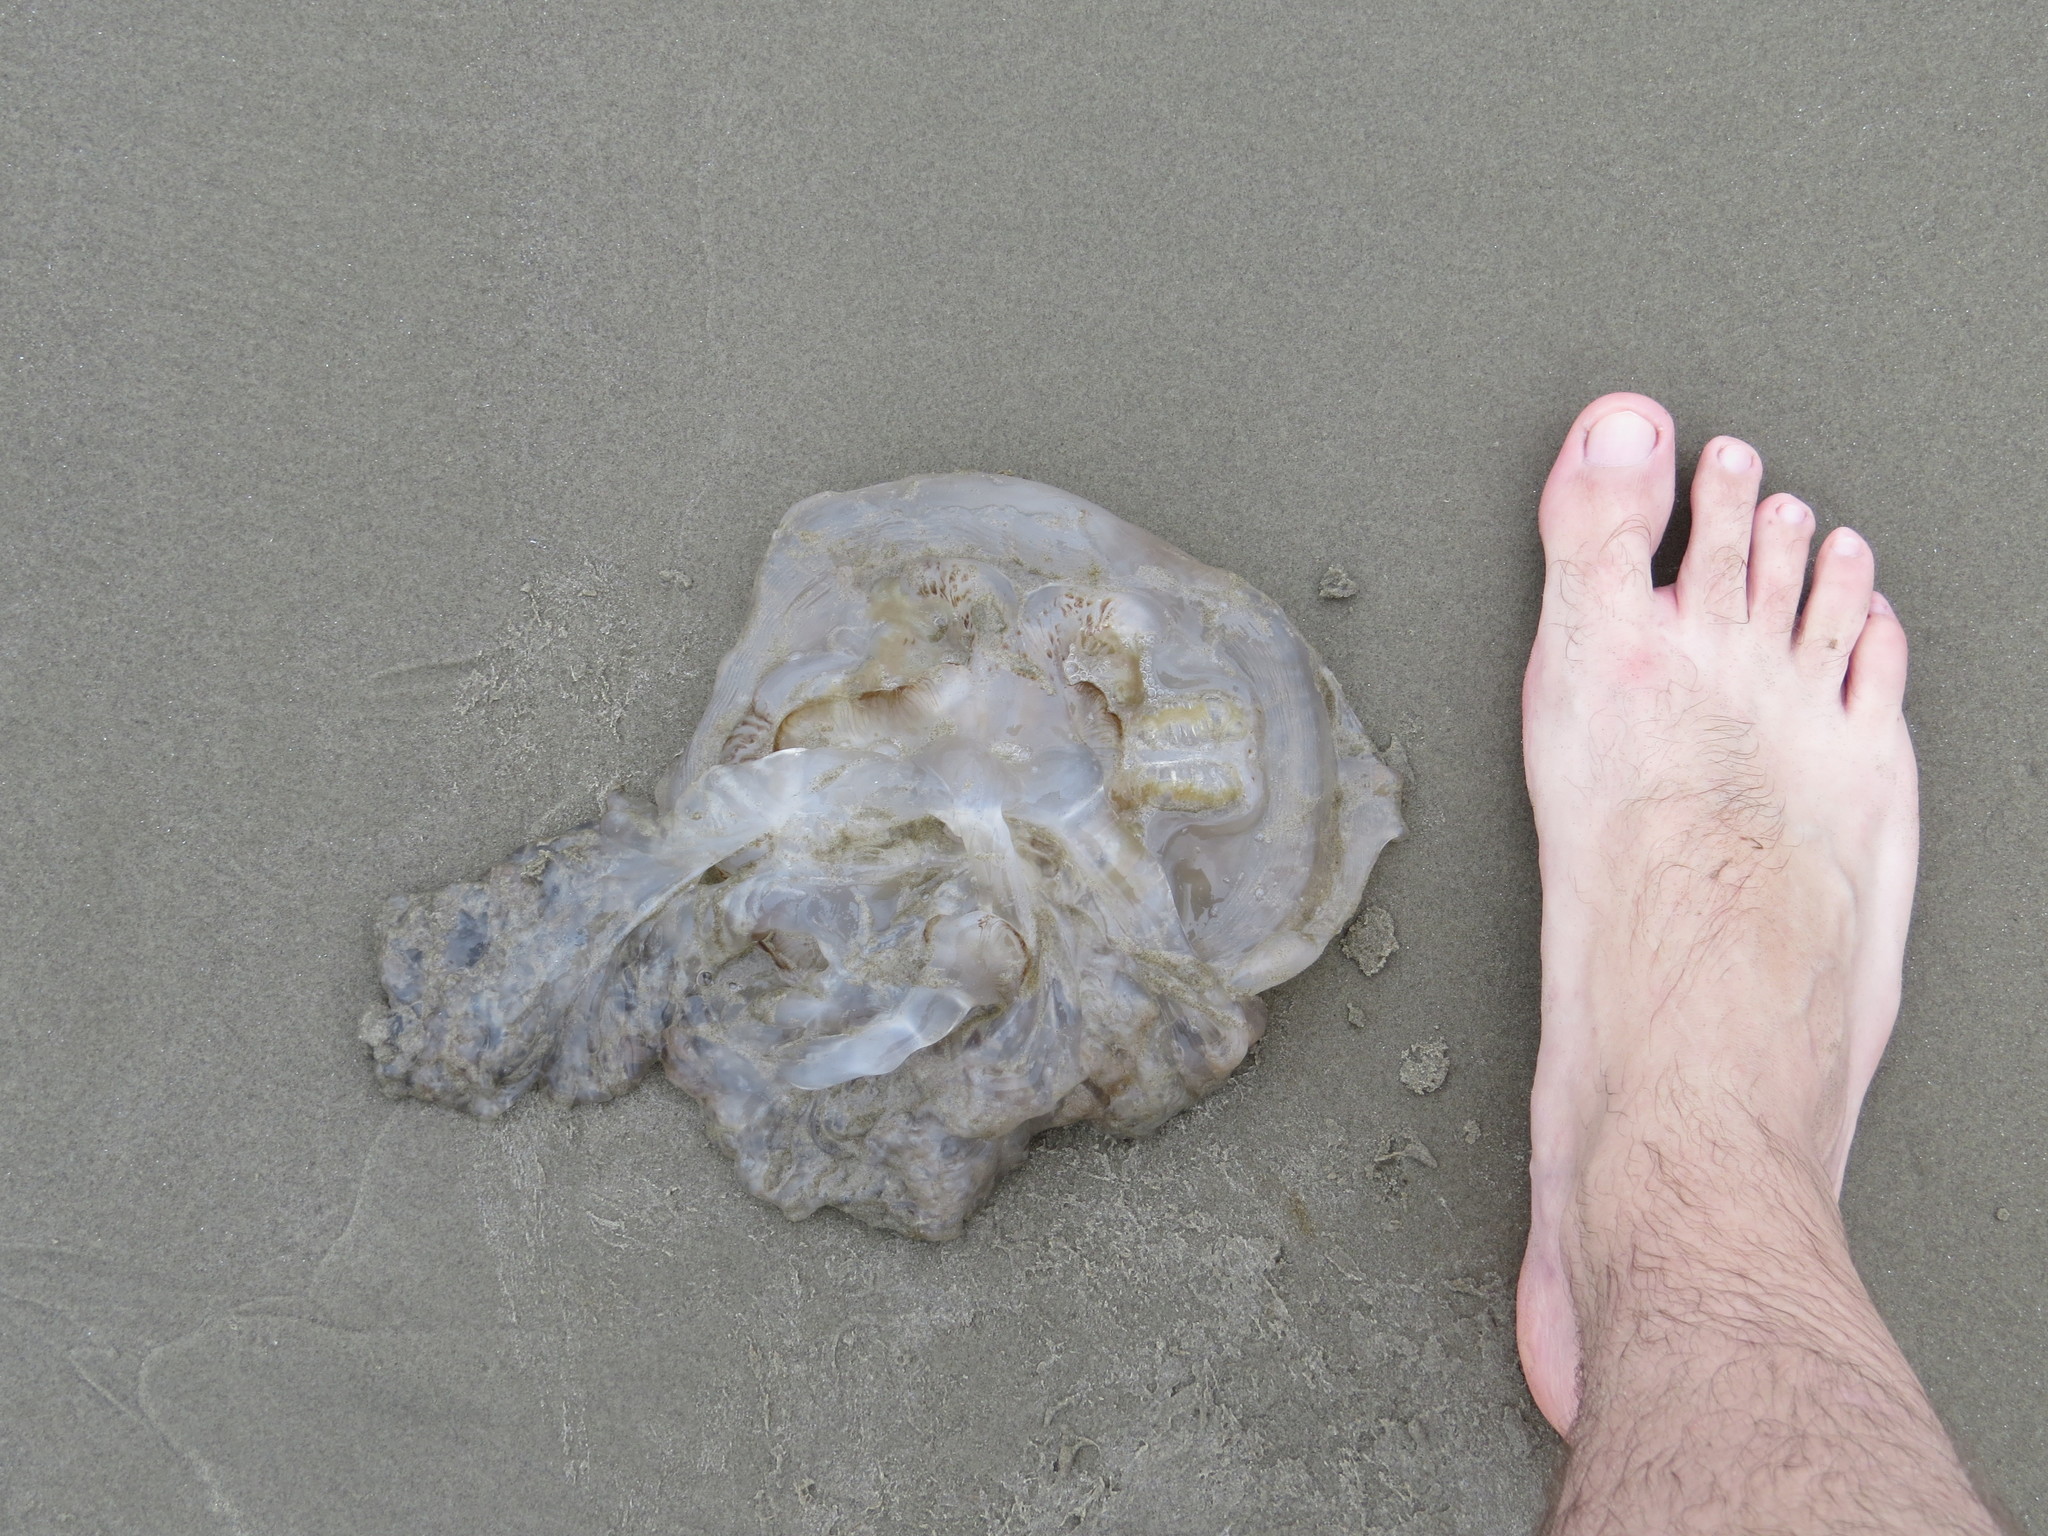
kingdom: Animalia
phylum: Cnidaria
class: Scyphozoa
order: Rhizostomeae
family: Lychnorhizidae
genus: Lychnorhiza
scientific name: Lychnorhiza lucerna
